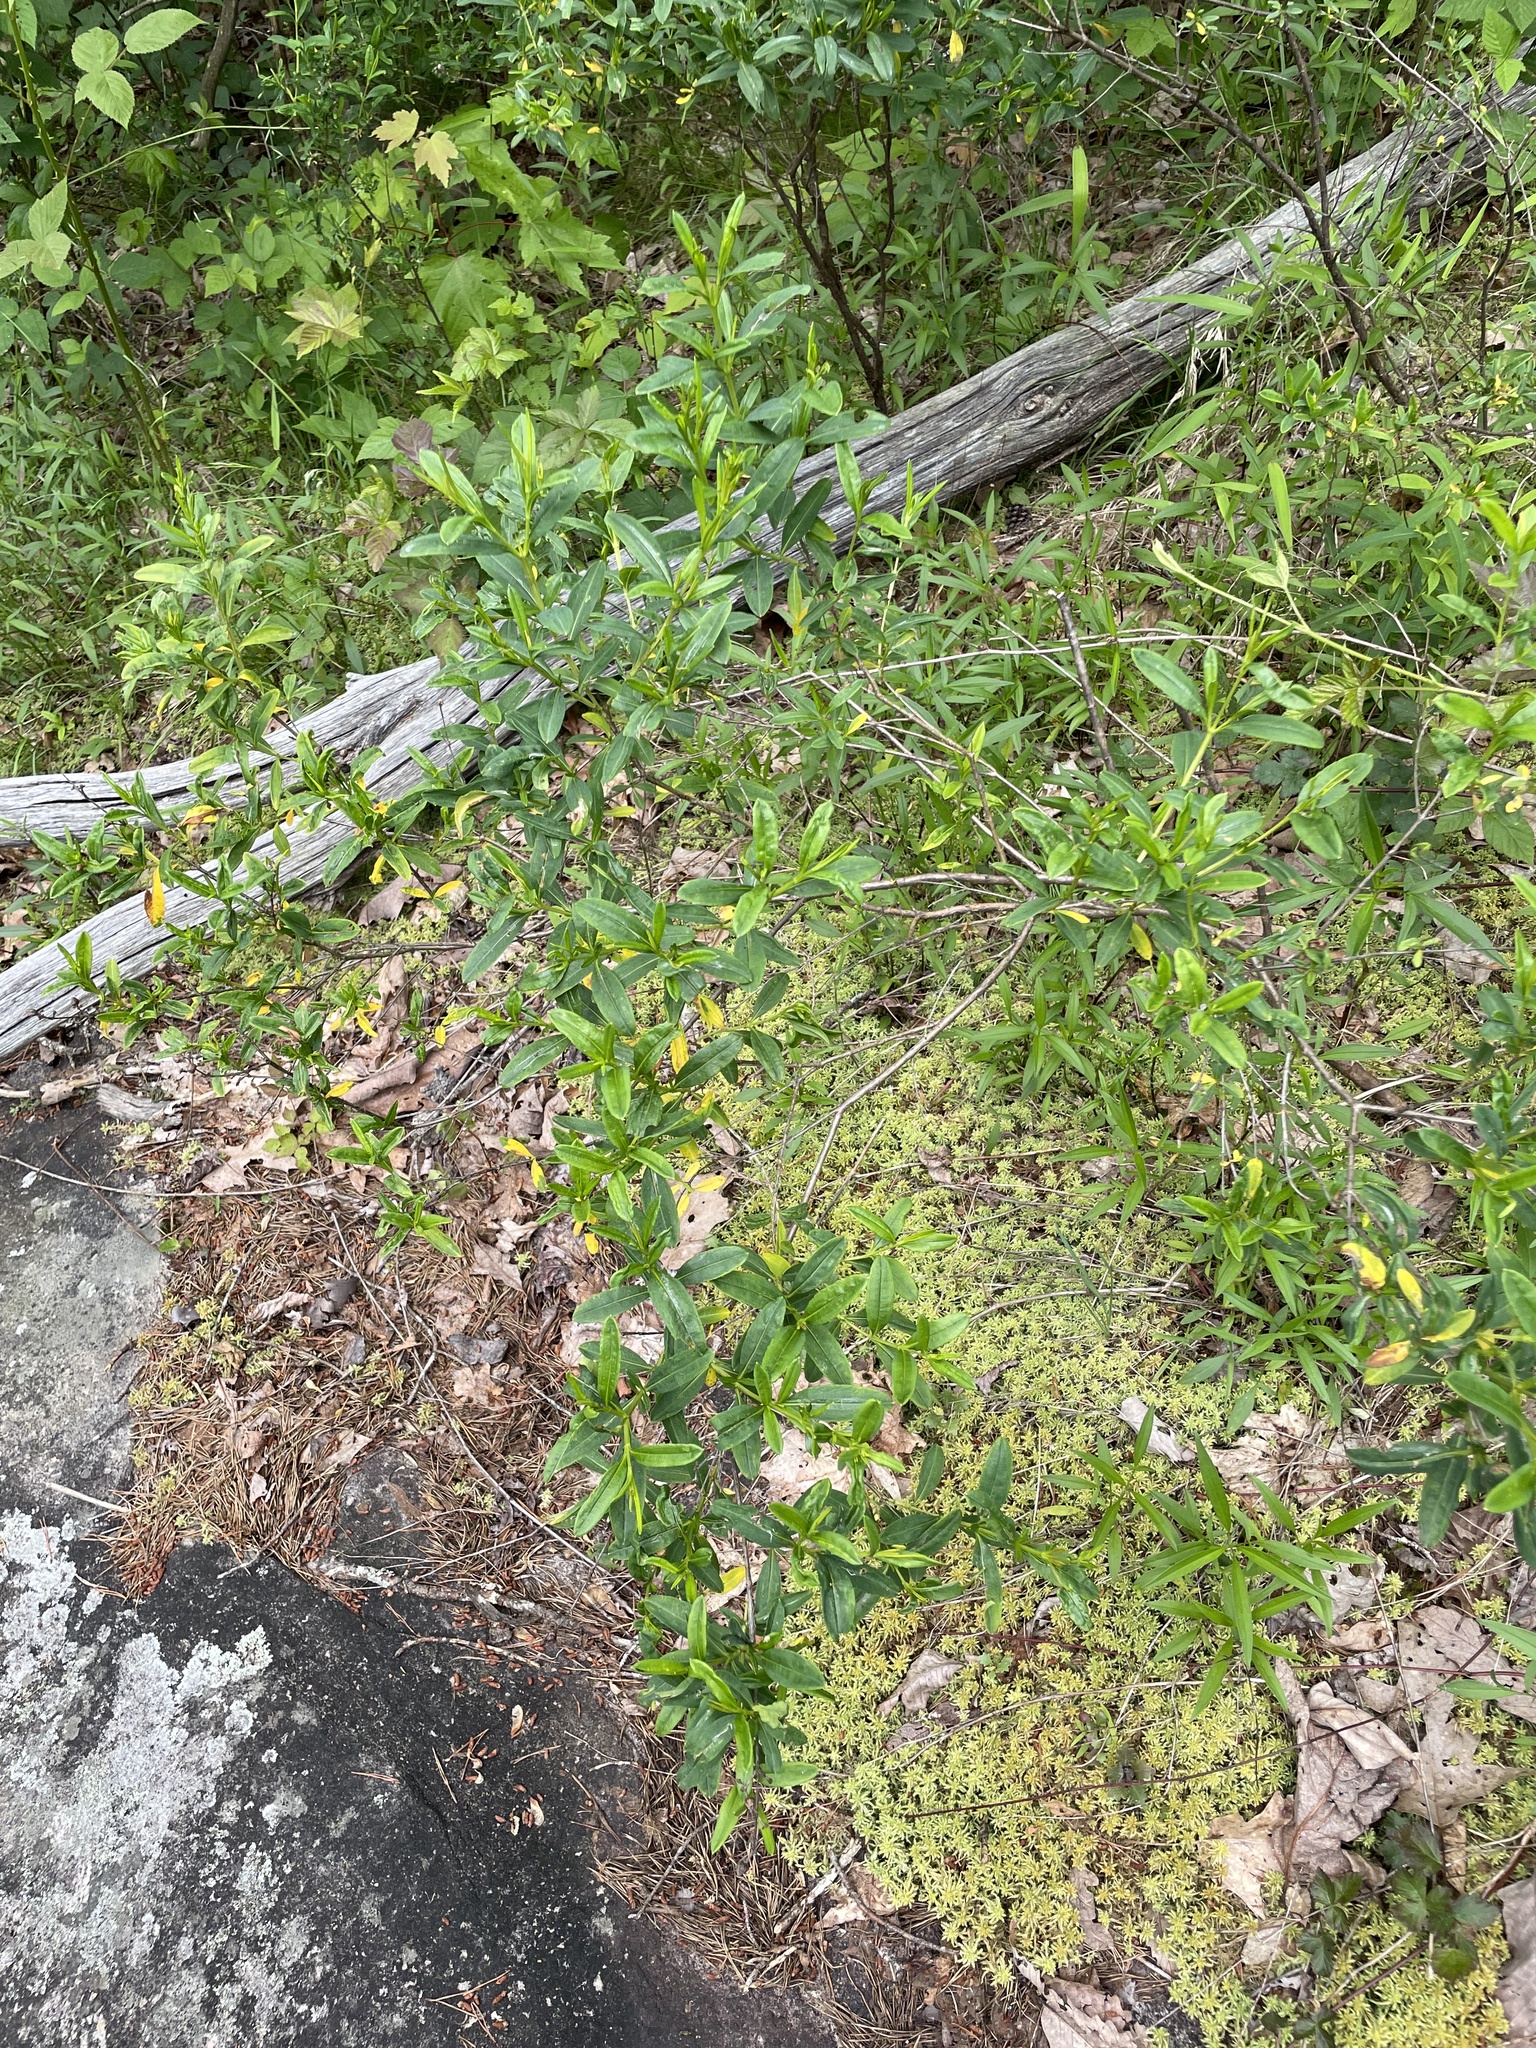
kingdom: Plantae
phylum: Tracheophyta
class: Magnoliopsida
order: Malpighiales
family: Hypericaceae
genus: Hypericum
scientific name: Hypericum prolificum
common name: Shrubby st. john's-wort
